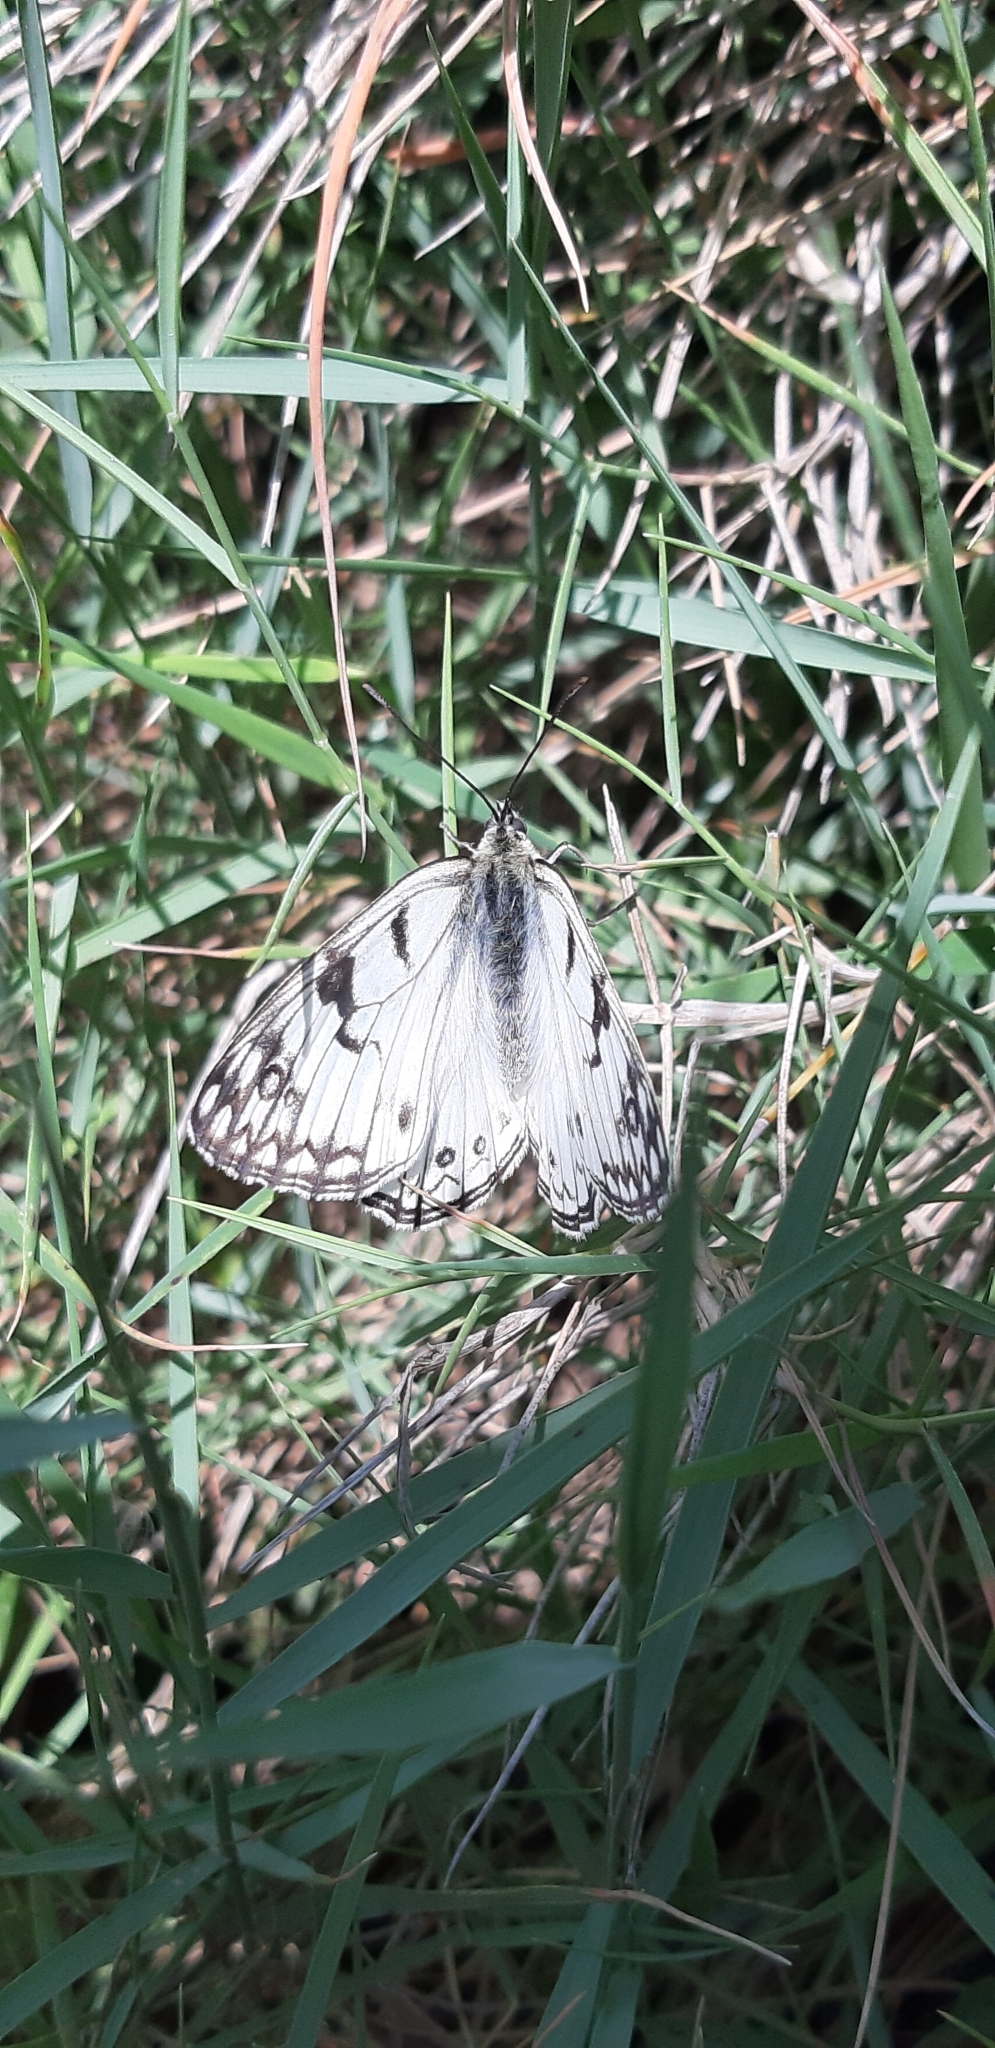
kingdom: Animalia
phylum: Arthropoda
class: Insecta
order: Lepidoptera
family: Nymphalidae
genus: Melanargia
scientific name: Melanargia arge
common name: Italian marbled white
